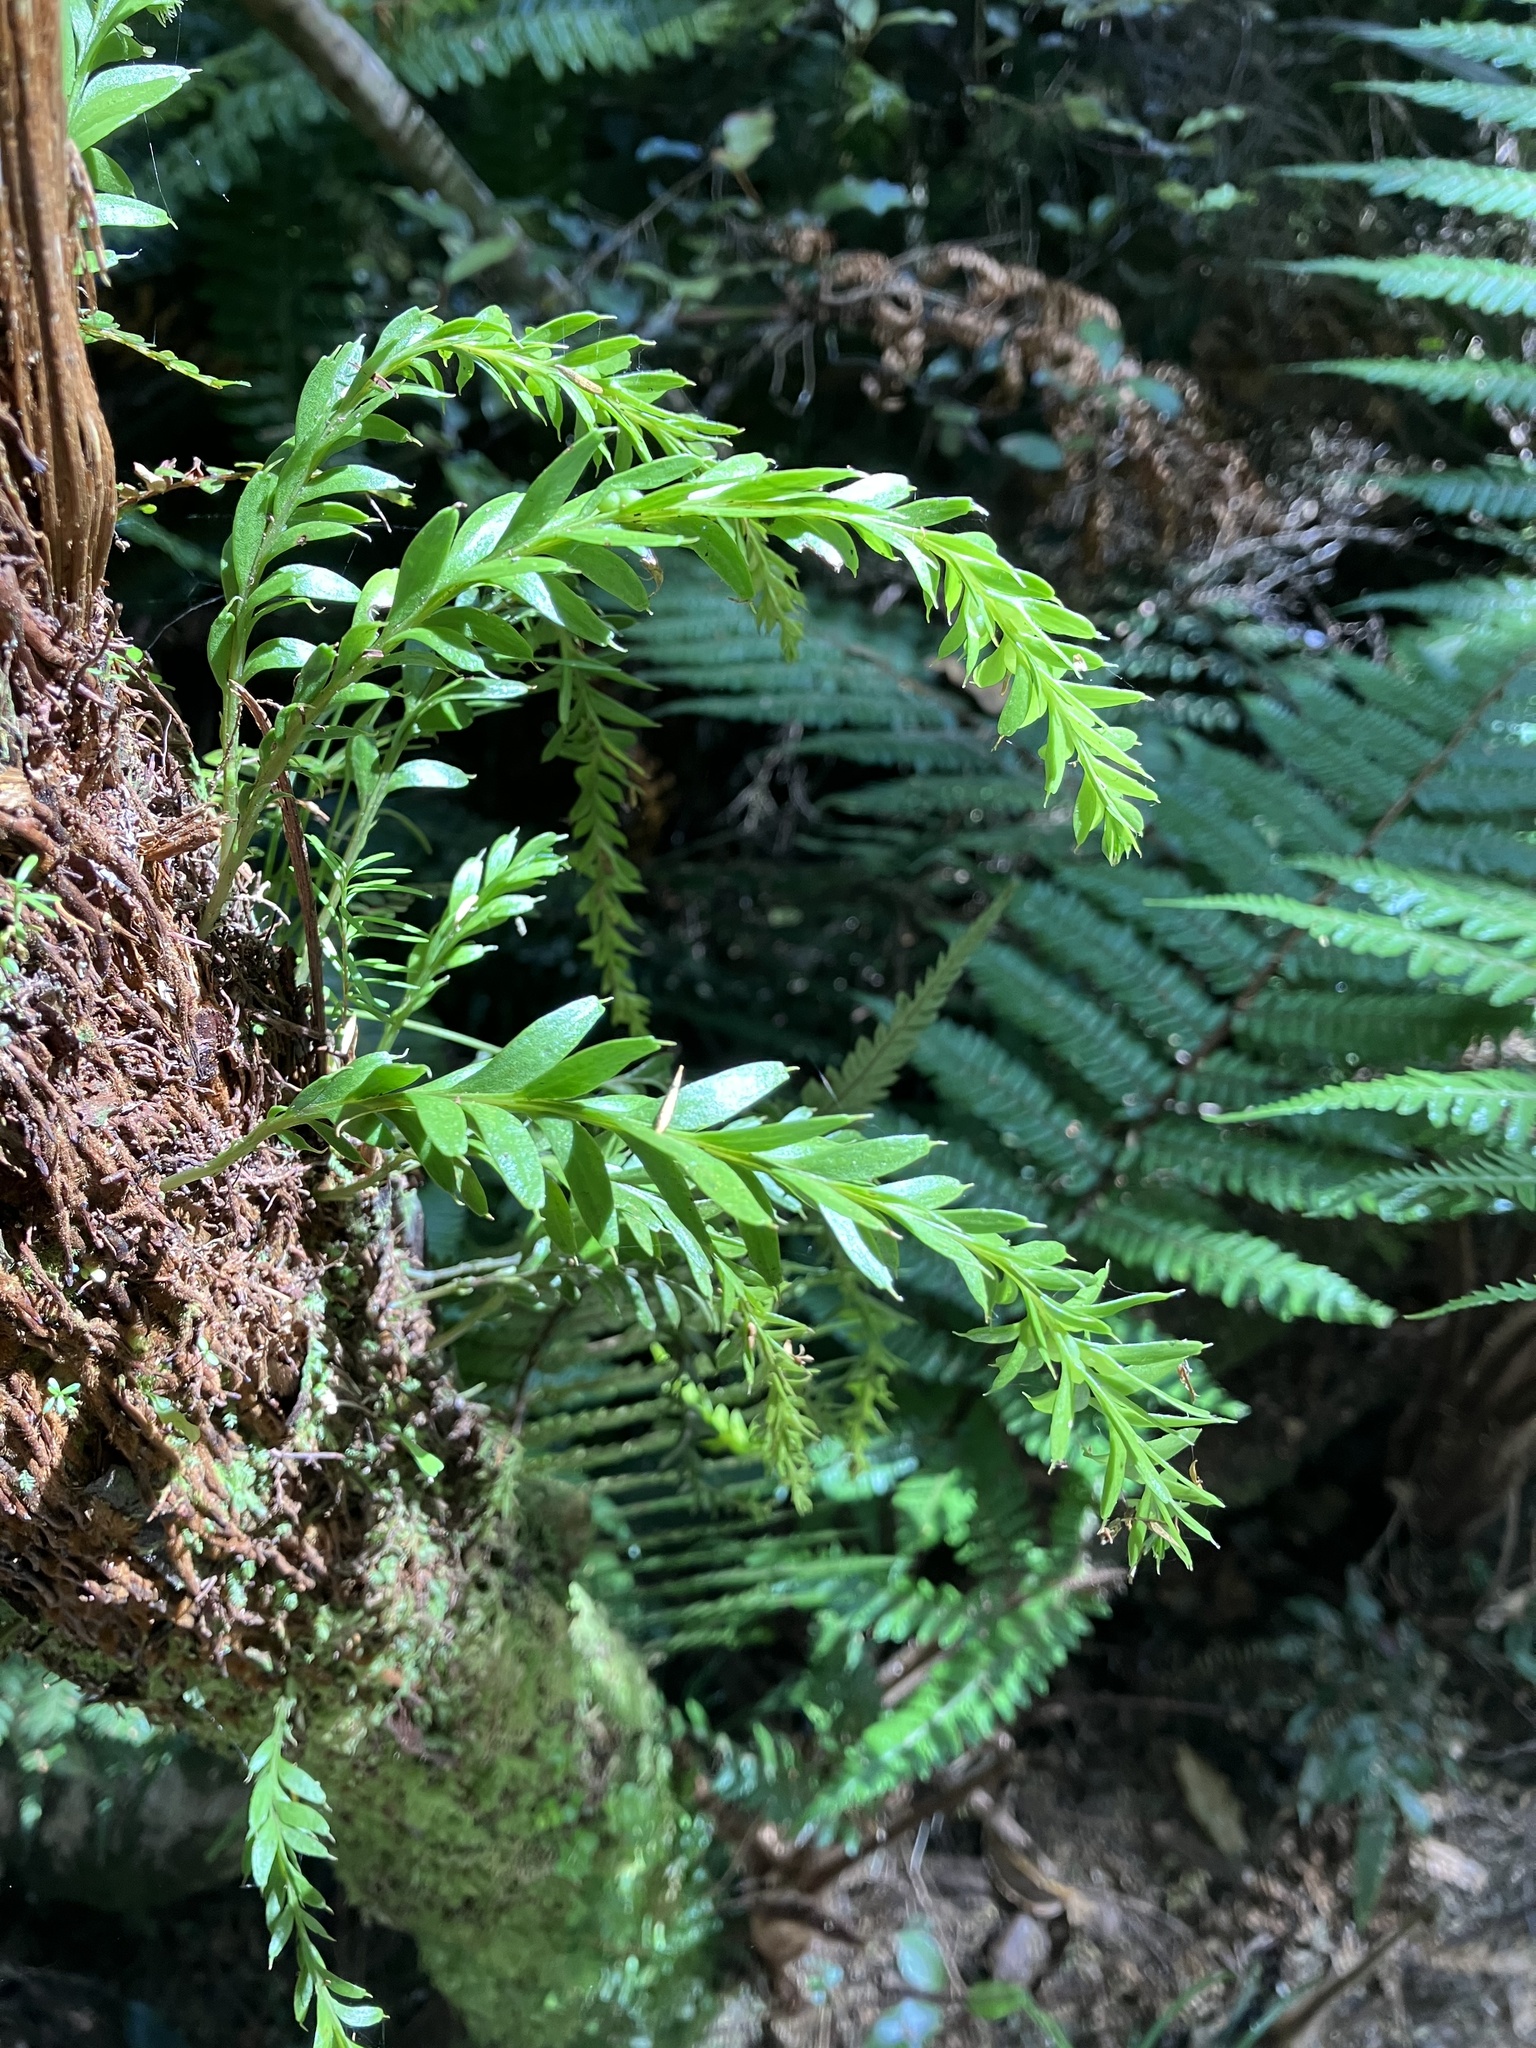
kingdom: Plantae
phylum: Tracheophyta
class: Polypodiopsida
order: Psilotales
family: Psilotaceae
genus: Tmesipteris
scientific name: Tmesipteris elongata
